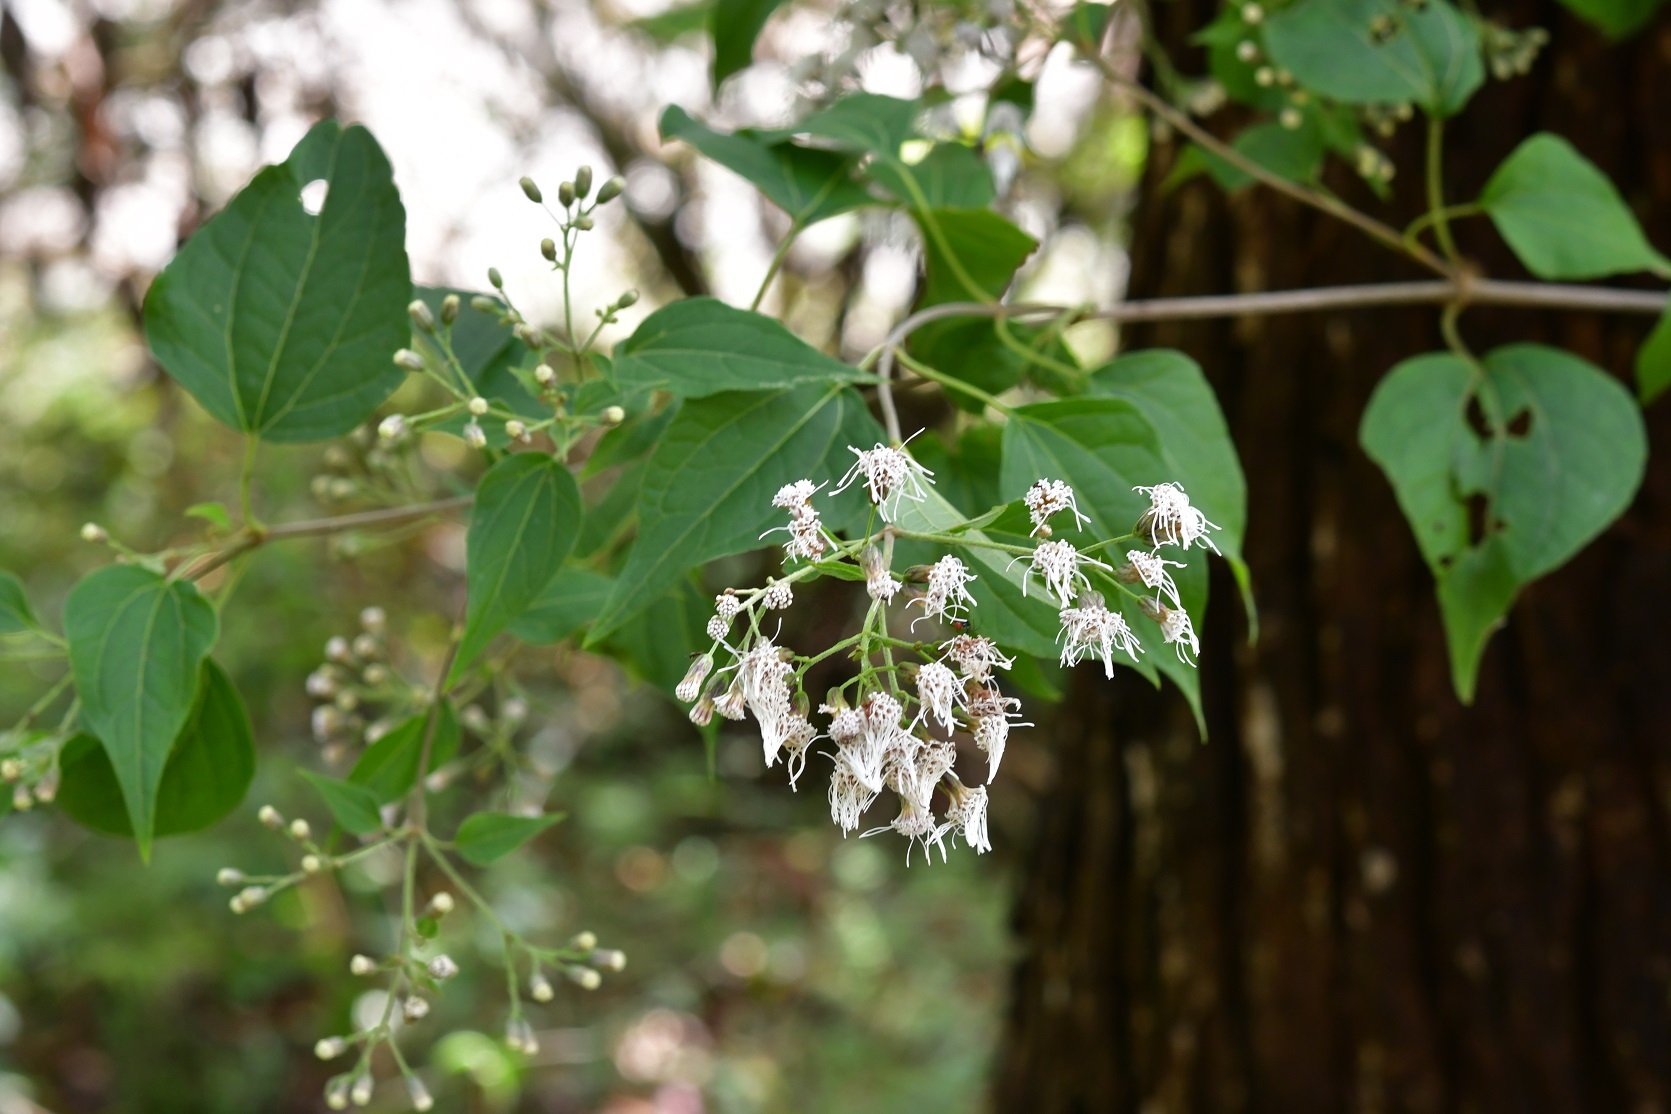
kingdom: Plantae
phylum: Tracheophyta
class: Magnoliopsida
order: Asterales
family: Asteraceae
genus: Chromolaena
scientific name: Chromolaena collina
